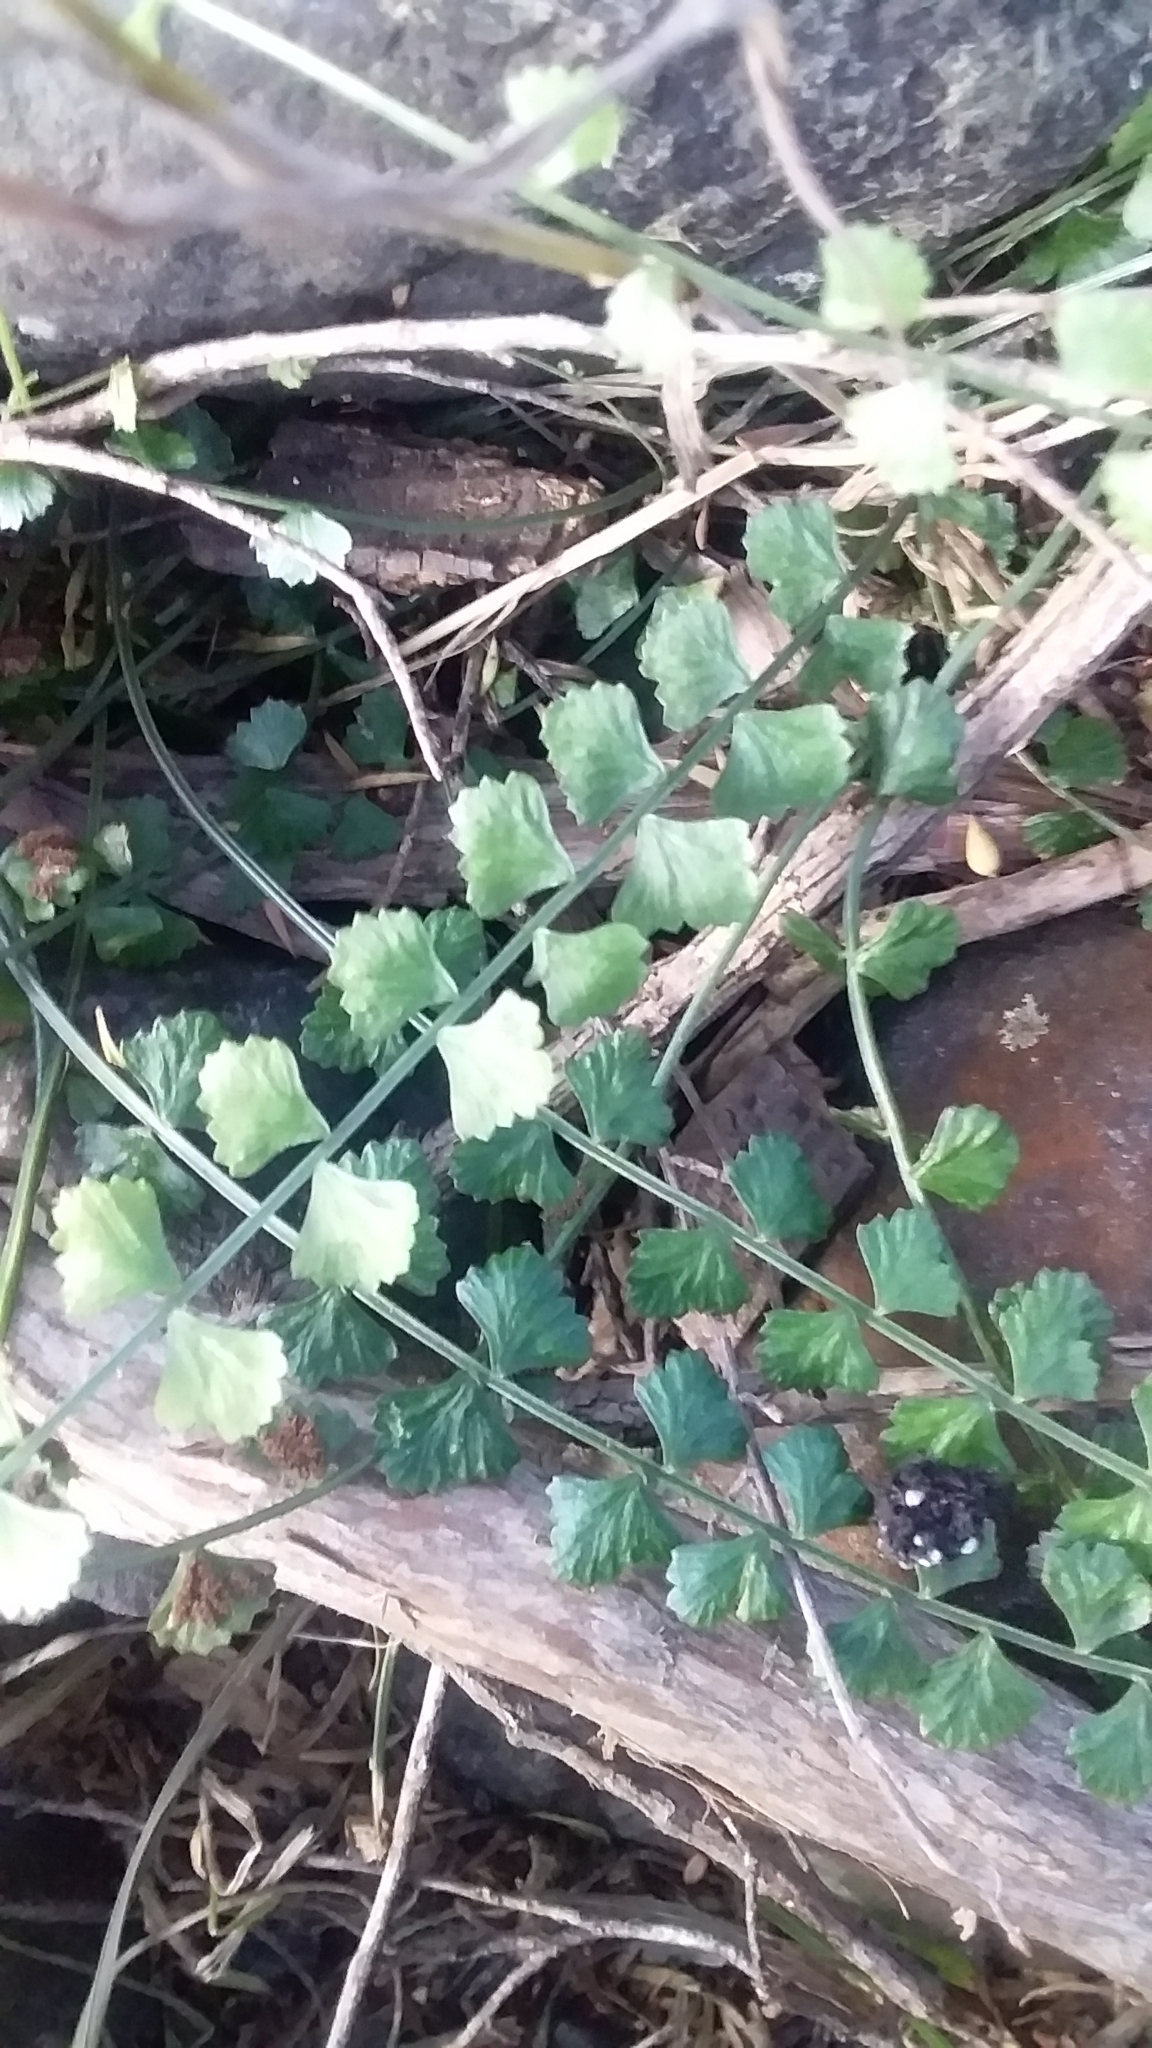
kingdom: Plantae
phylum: Tracheophyta
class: Polypodiopsida
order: Polypodiales
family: Aspleniaceae
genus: Asplenium
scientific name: Asplenium flabellifolium
